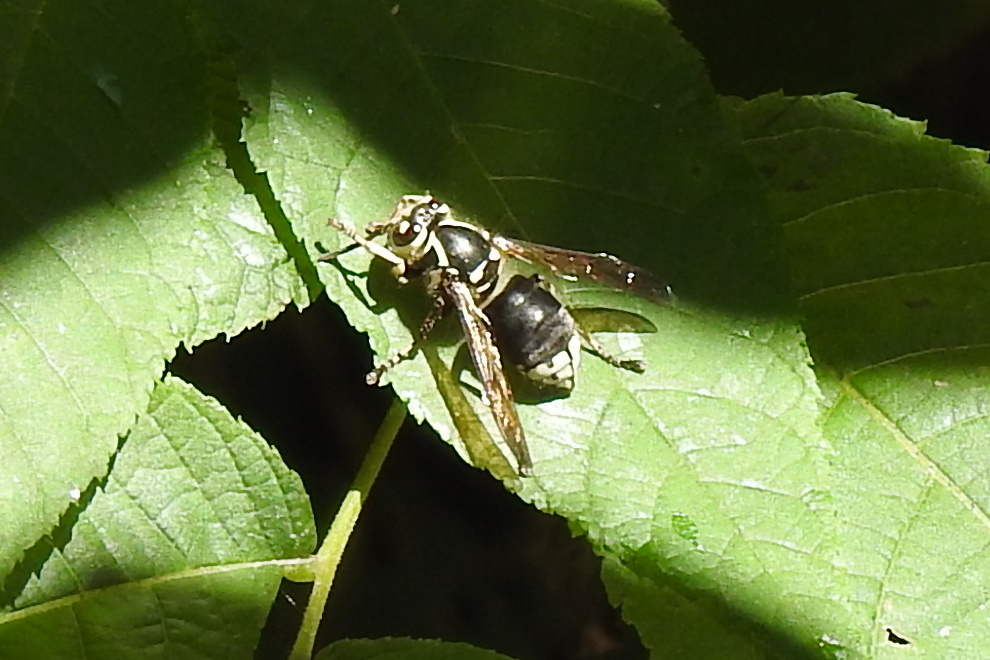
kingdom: Animalia
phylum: Arthropoda
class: Insecta
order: Hymenoptera
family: Vespidae
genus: Dolichovespula
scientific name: Dolichovespula maculata
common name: Bald-faced hornet
